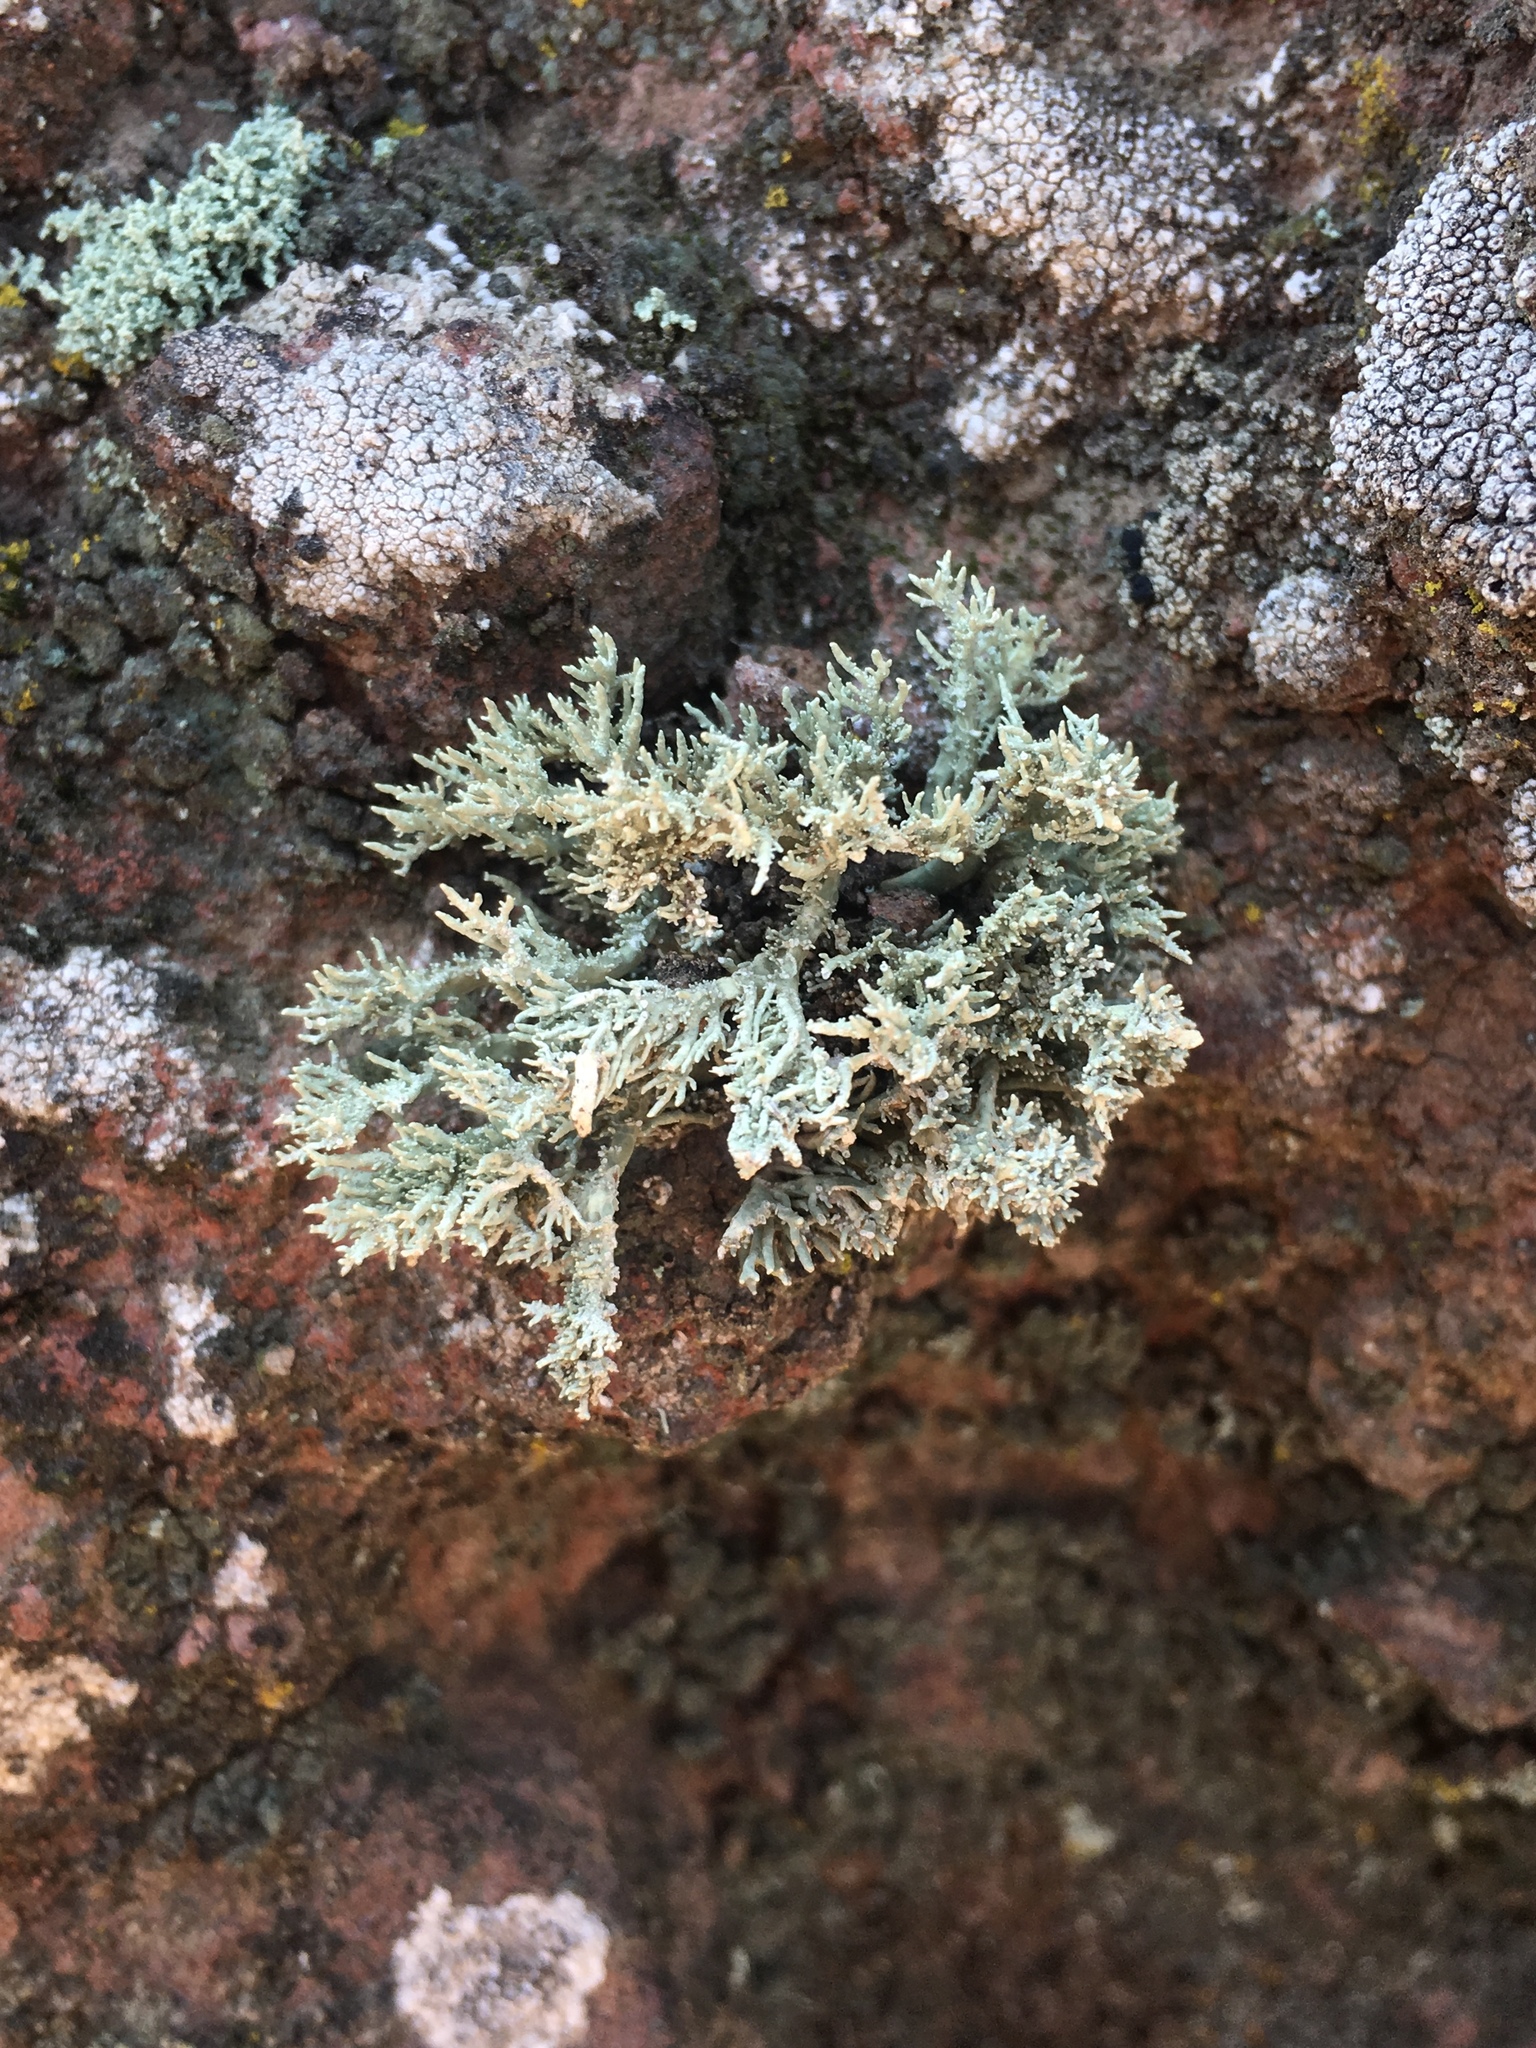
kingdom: Fungi
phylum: Ascomycota
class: Lecanoromycetes
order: Lecanorales
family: Ramalinaceae
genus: Niebla
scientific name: Niebla isidiaescens
